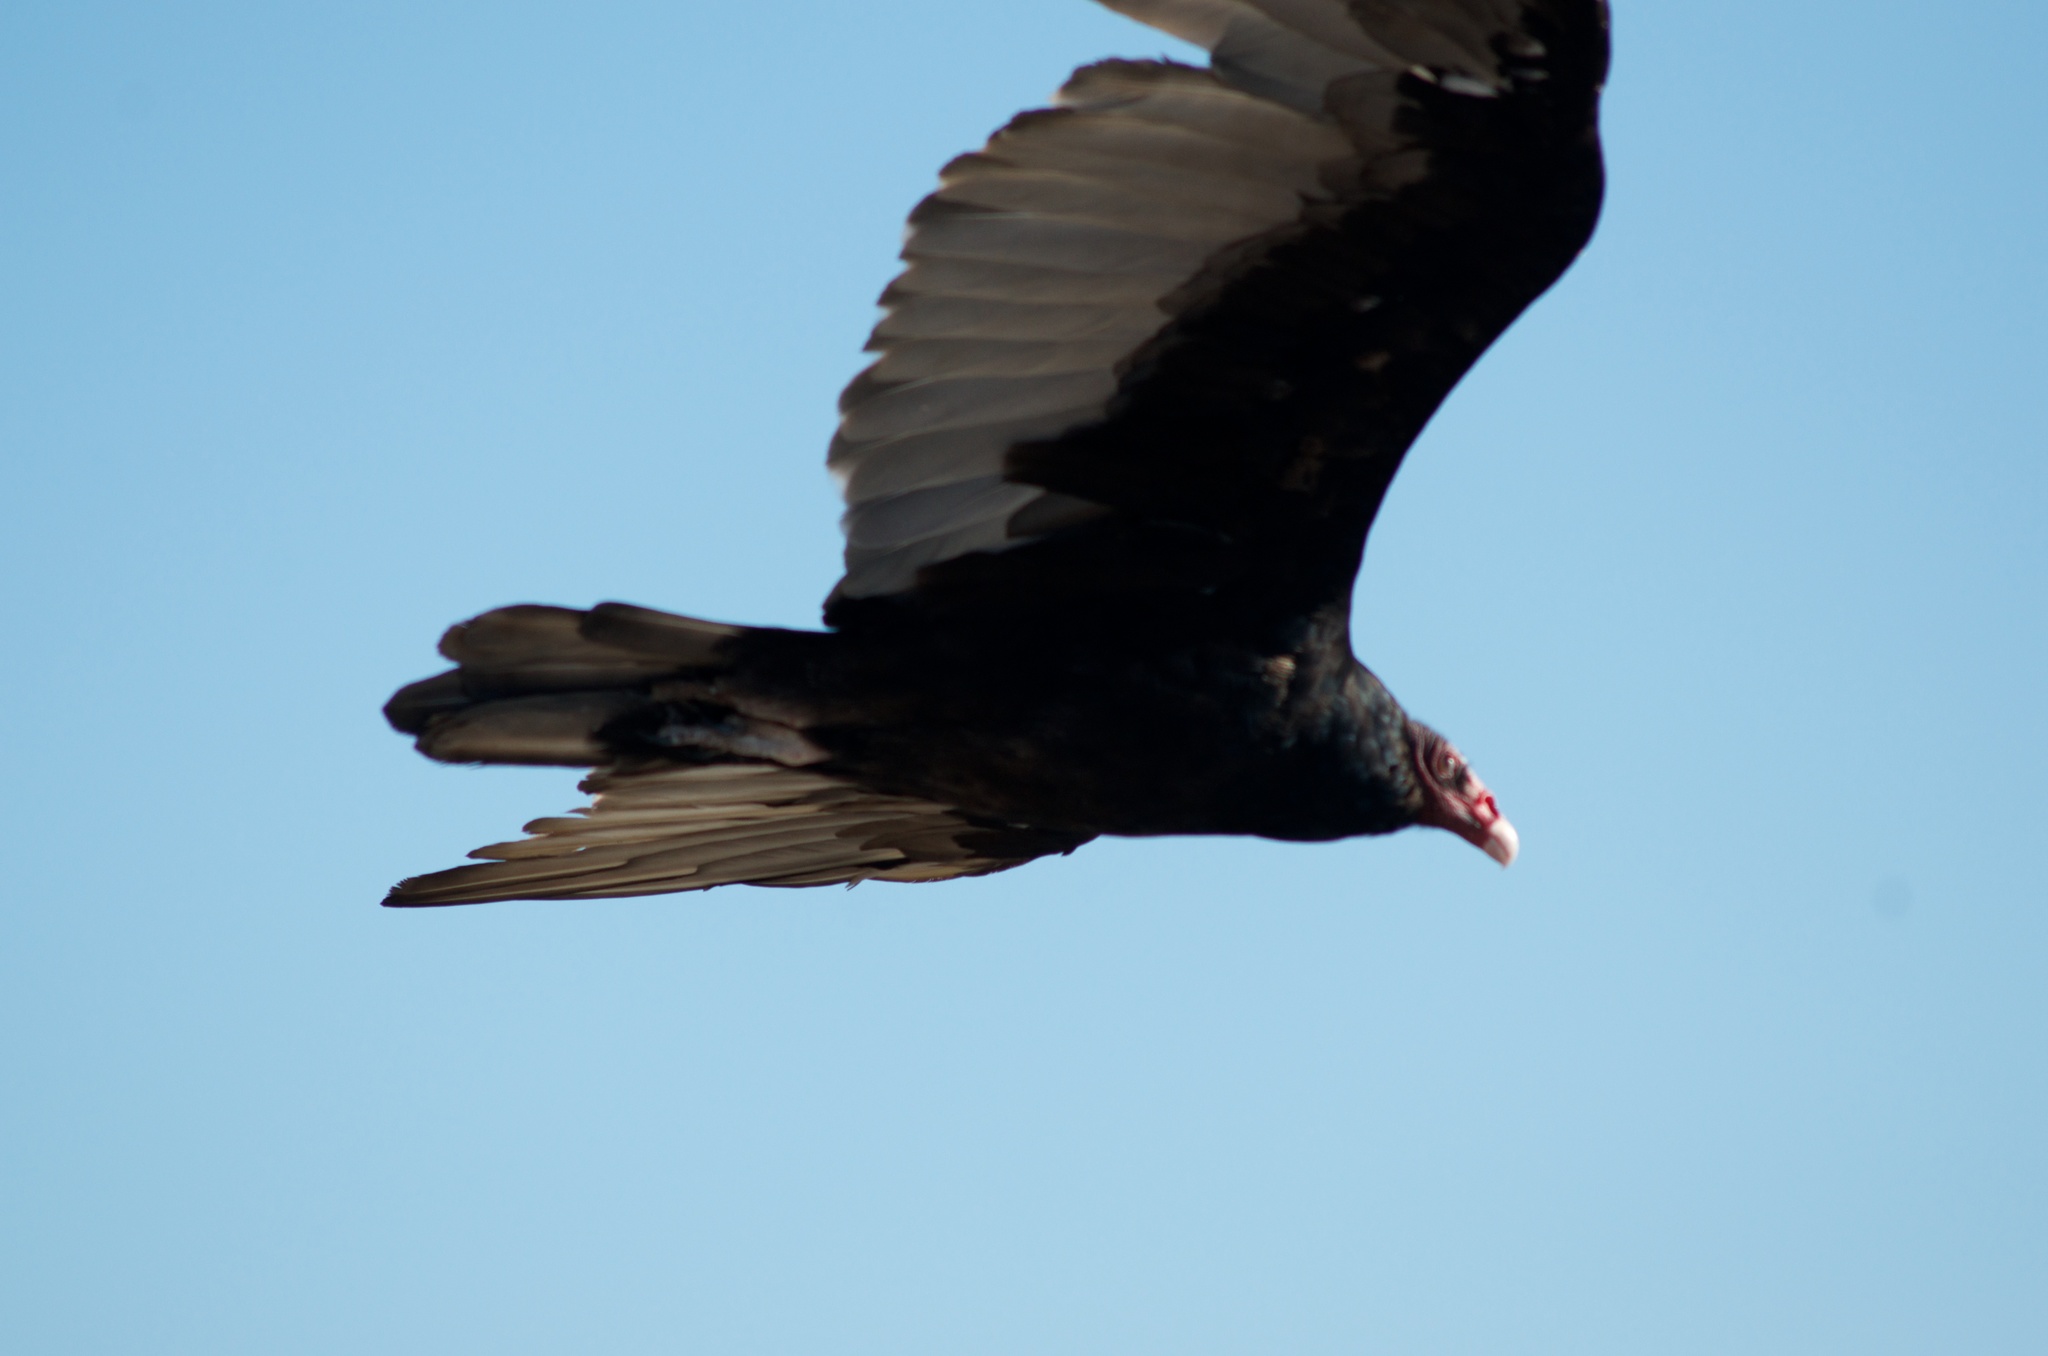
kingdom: Animalia
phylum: Chordata
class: Aves
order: Accipitriformes
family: Cathartidae
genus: Cathartes
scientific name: Cathartes aura
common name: Turkey vulture
